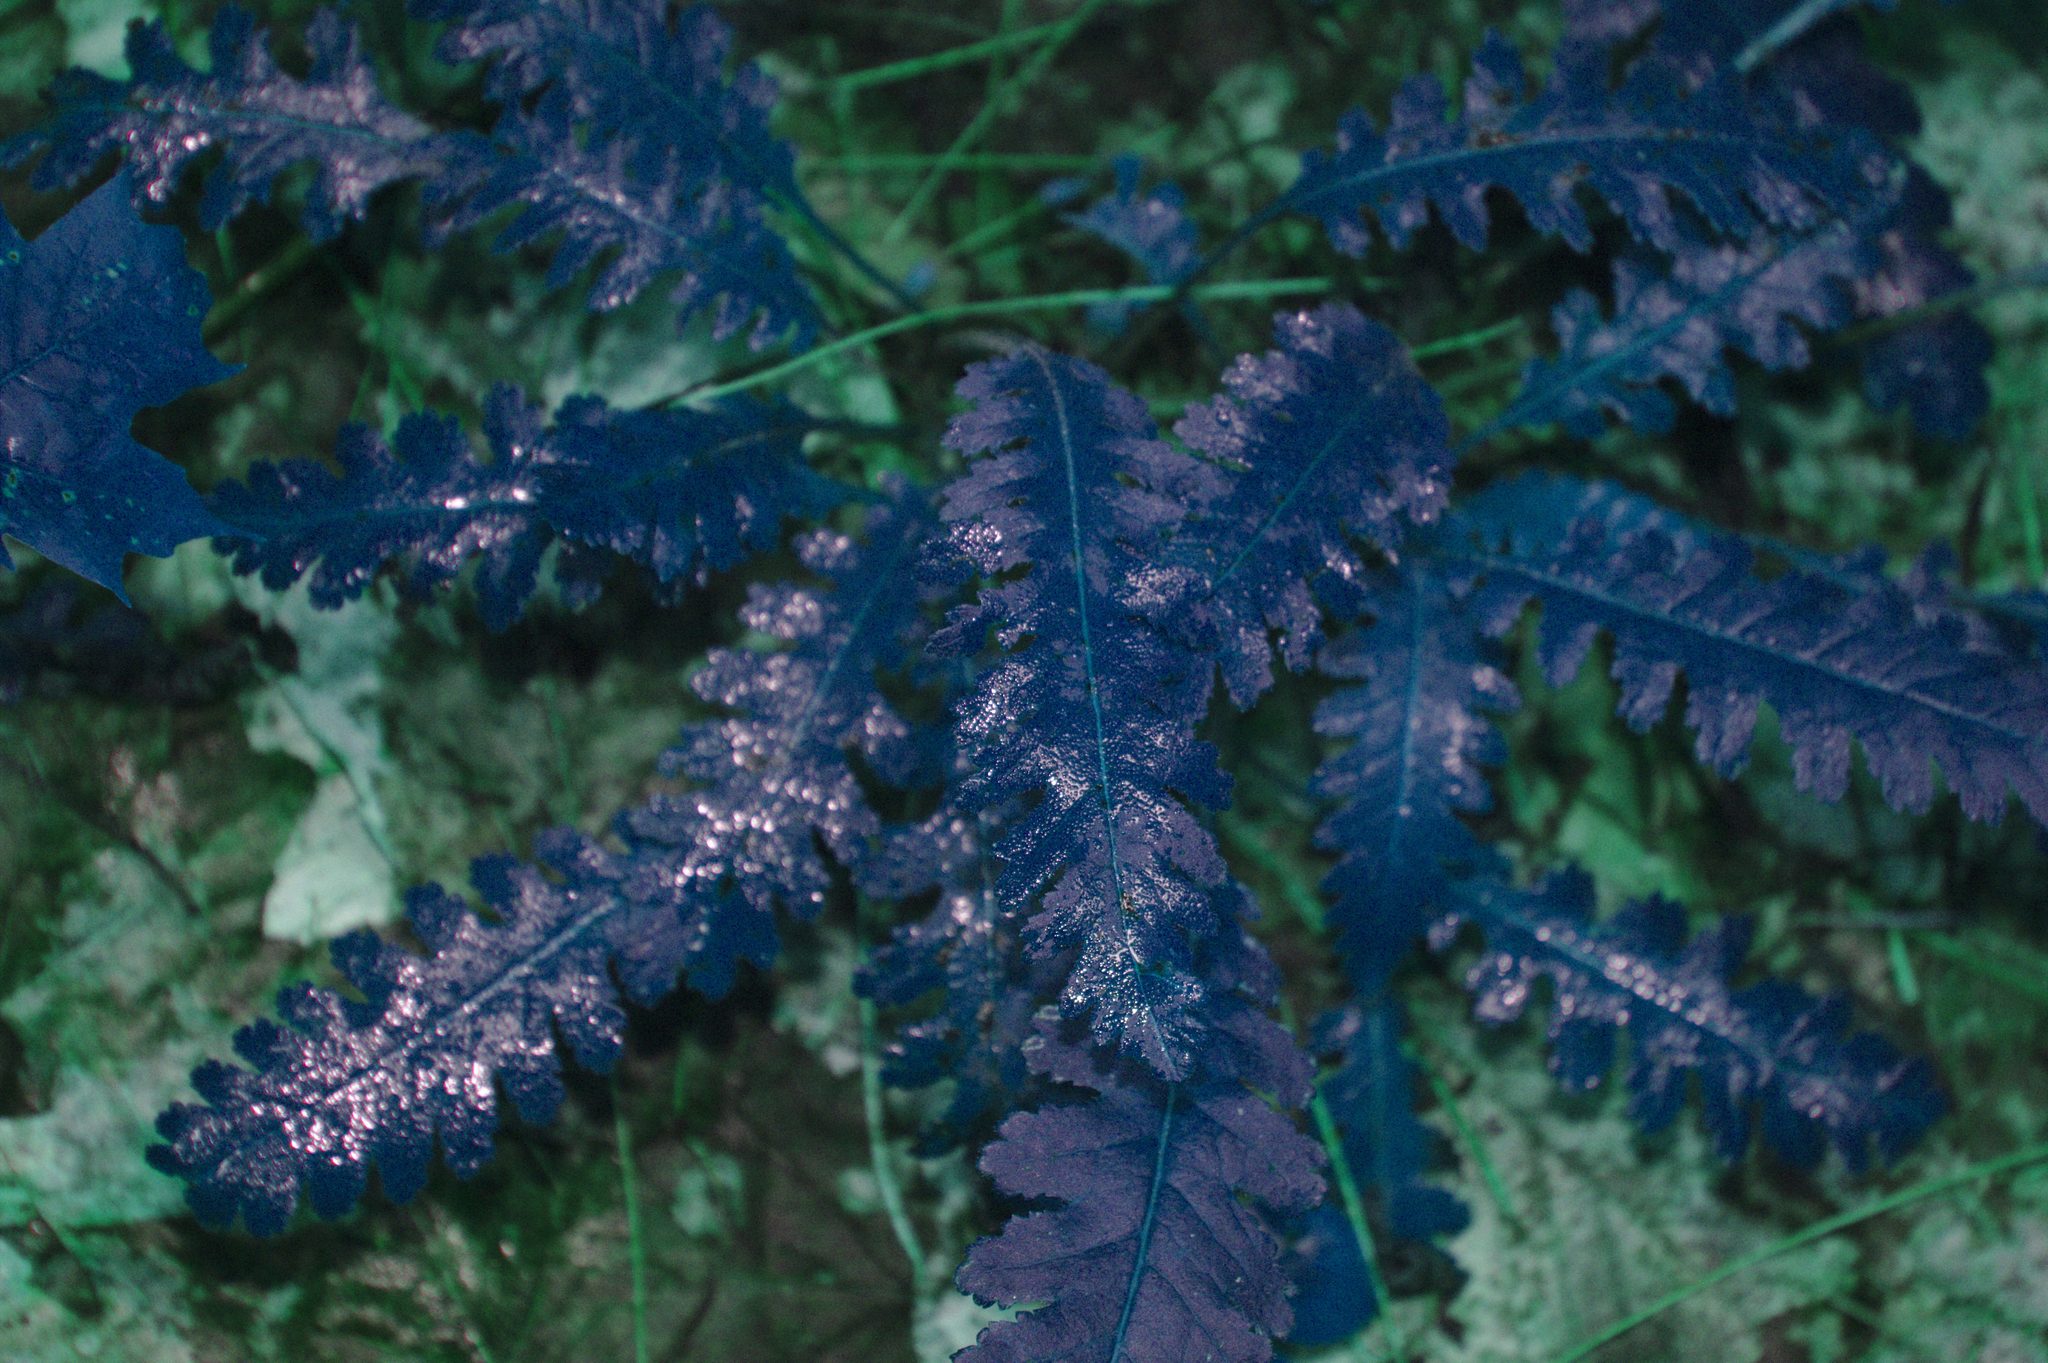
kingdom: Plantae
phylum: Tracheophyta
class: Magnoliopsida
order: Lamiales
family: Orobanchaceae
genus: Pedicularis
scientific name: Pedicularis canadensis
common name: Early lousewort
